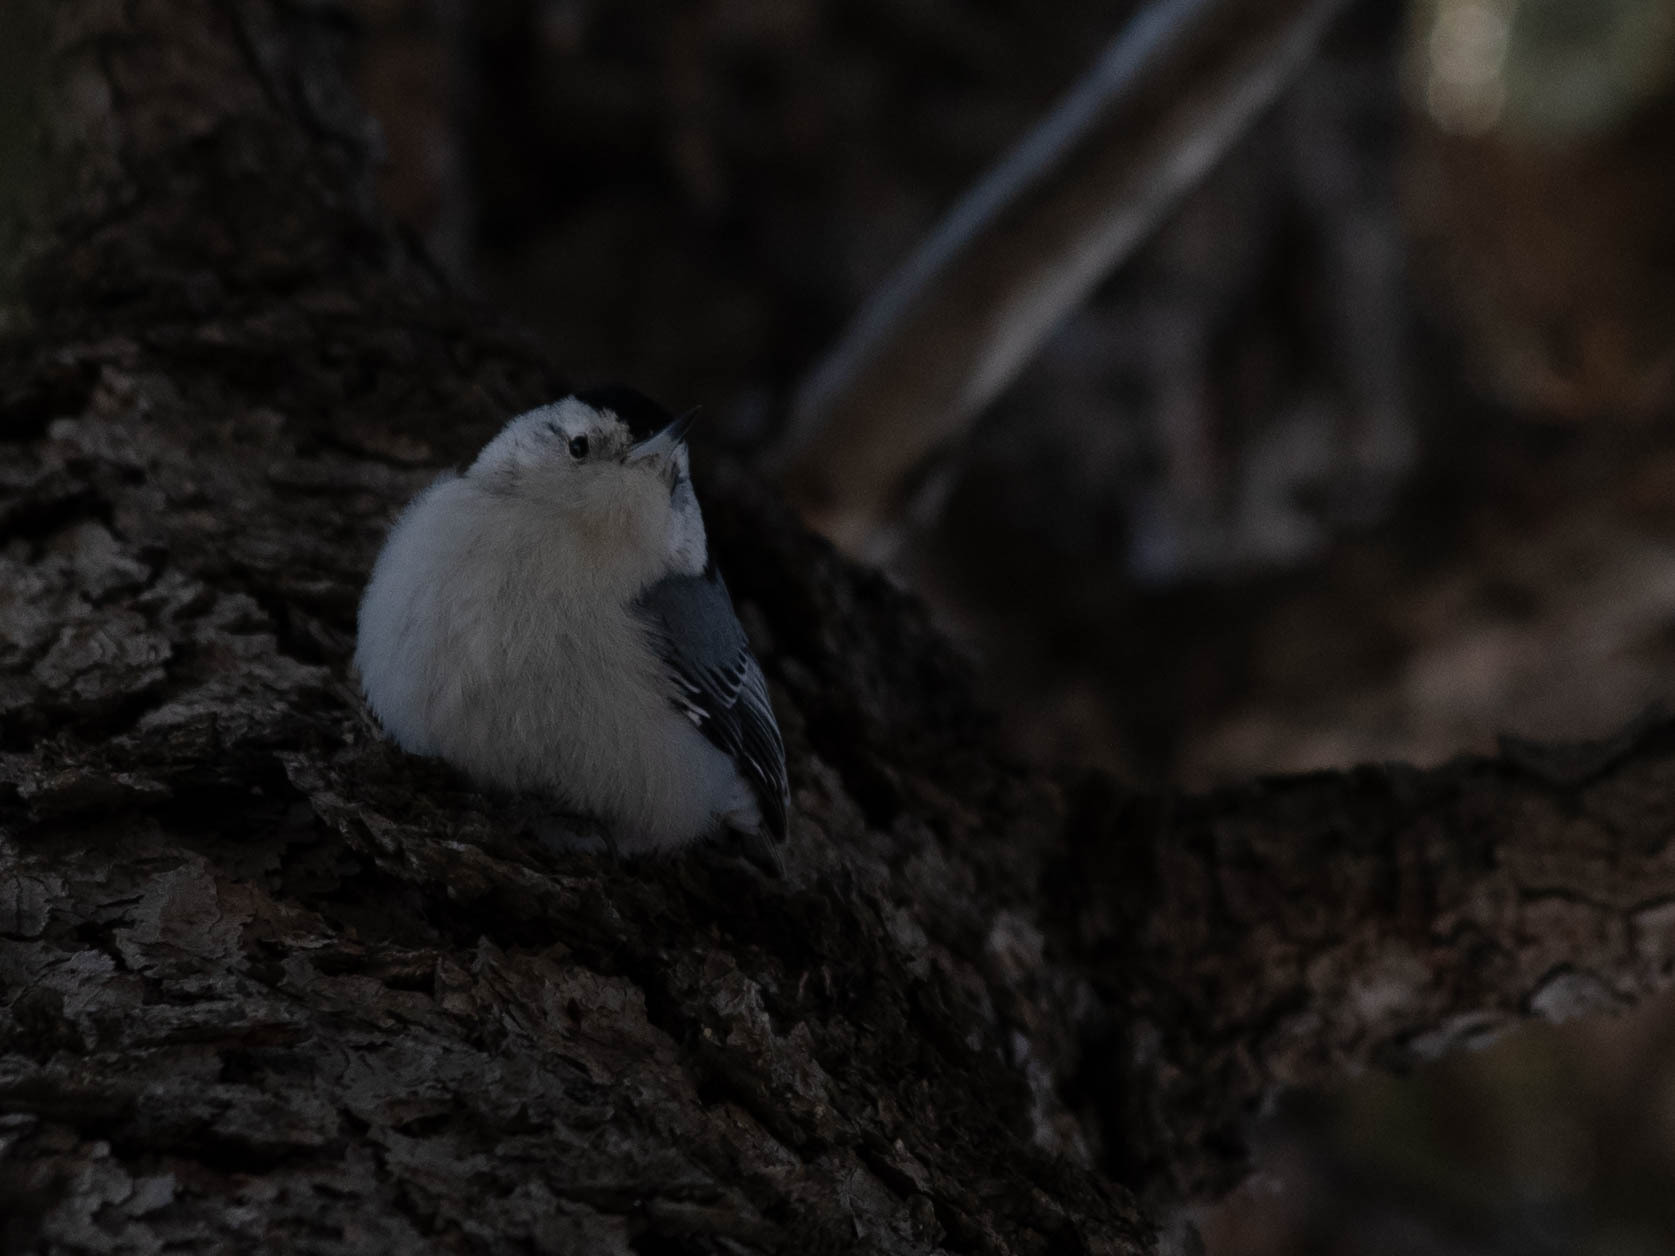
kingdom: Animalia
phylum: Chordata
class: Aves
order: Passeriformes
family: Sittidae
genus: Sitta
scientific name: Sitta carolinensis
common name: White-breasted nuthatch
